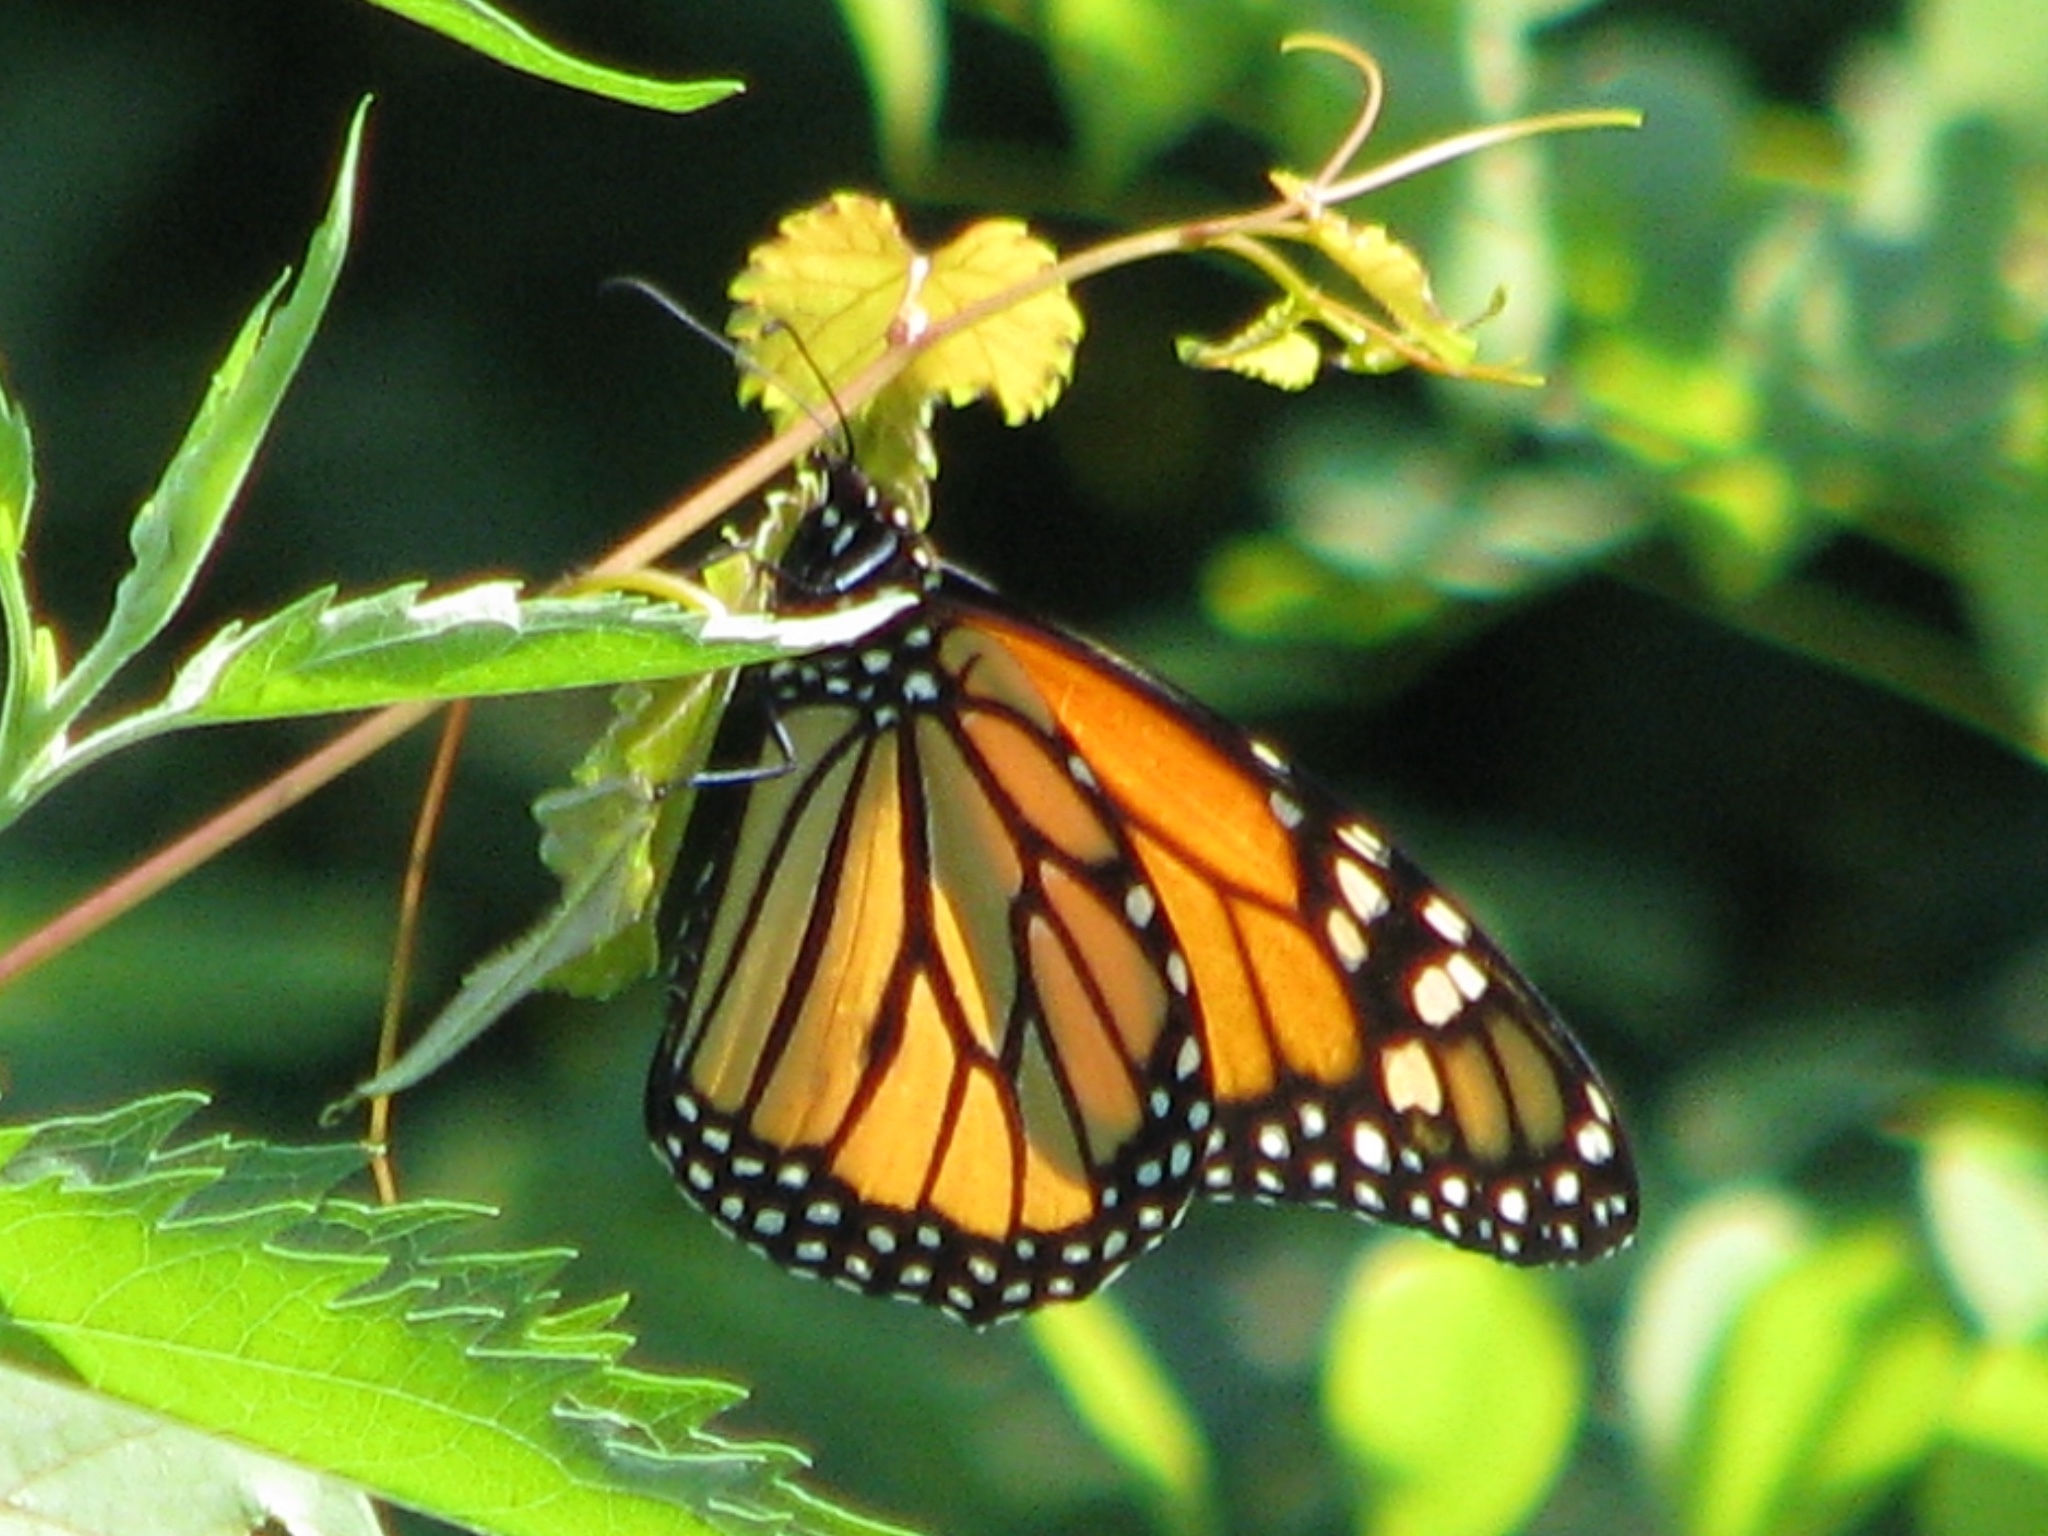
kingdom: Animalia
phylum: Arthropoda
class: Insecta
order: Lepidoptera
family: Nymphalidae
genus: Danaus
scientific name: Danaus plexippus
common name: Monarch
